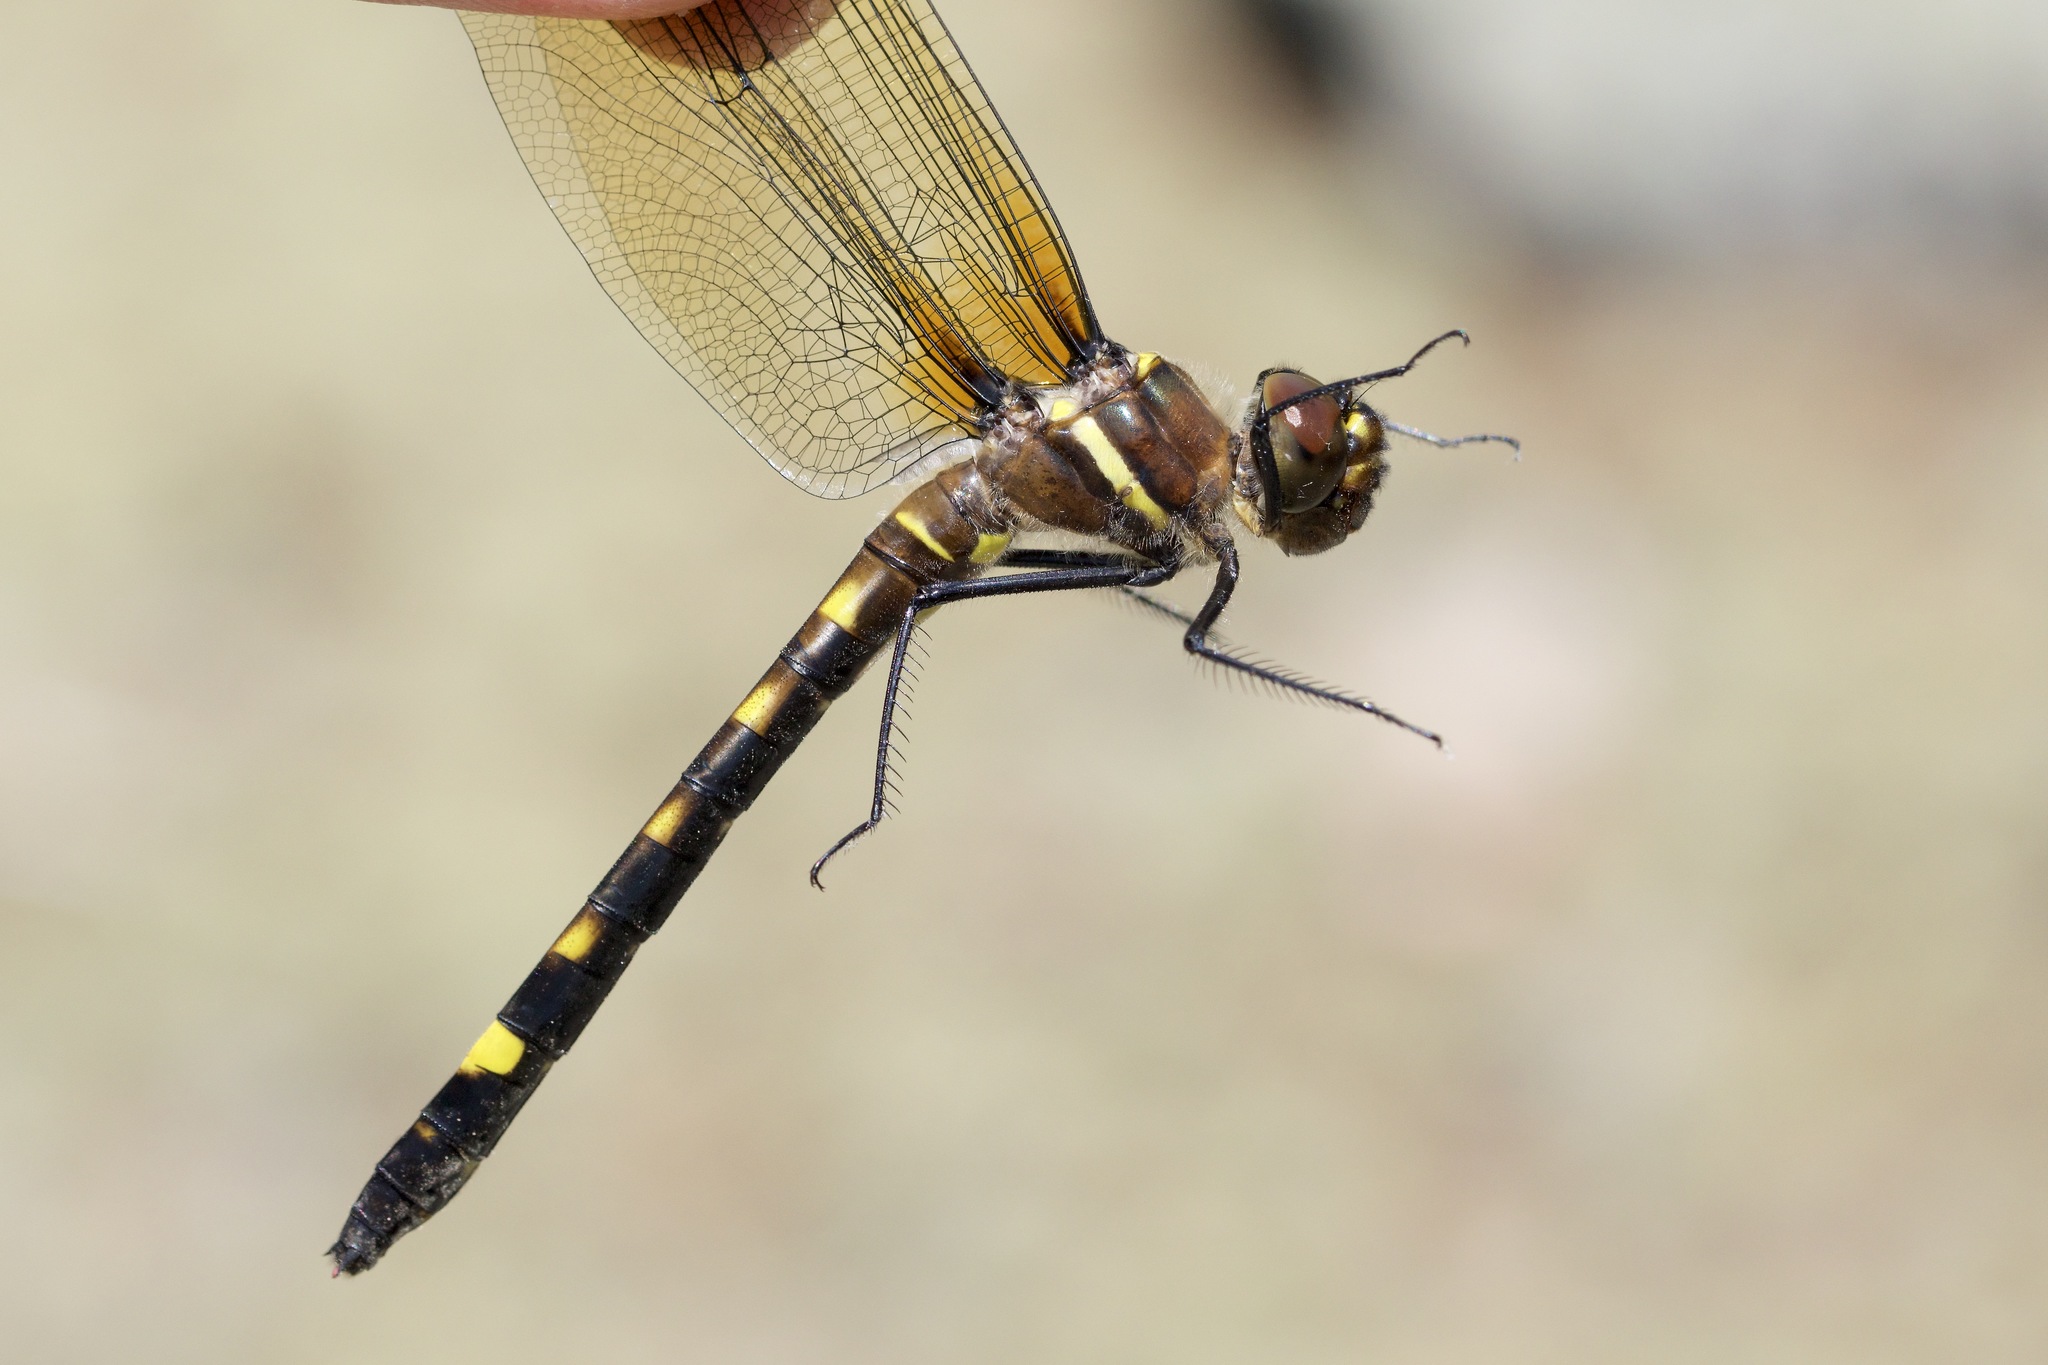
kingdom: Animalia
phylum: Arthropoda
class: Insecta
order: Odonata
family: Macromiidae
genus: Didymops
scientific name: Didymops transversa
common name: Stream cruiser
